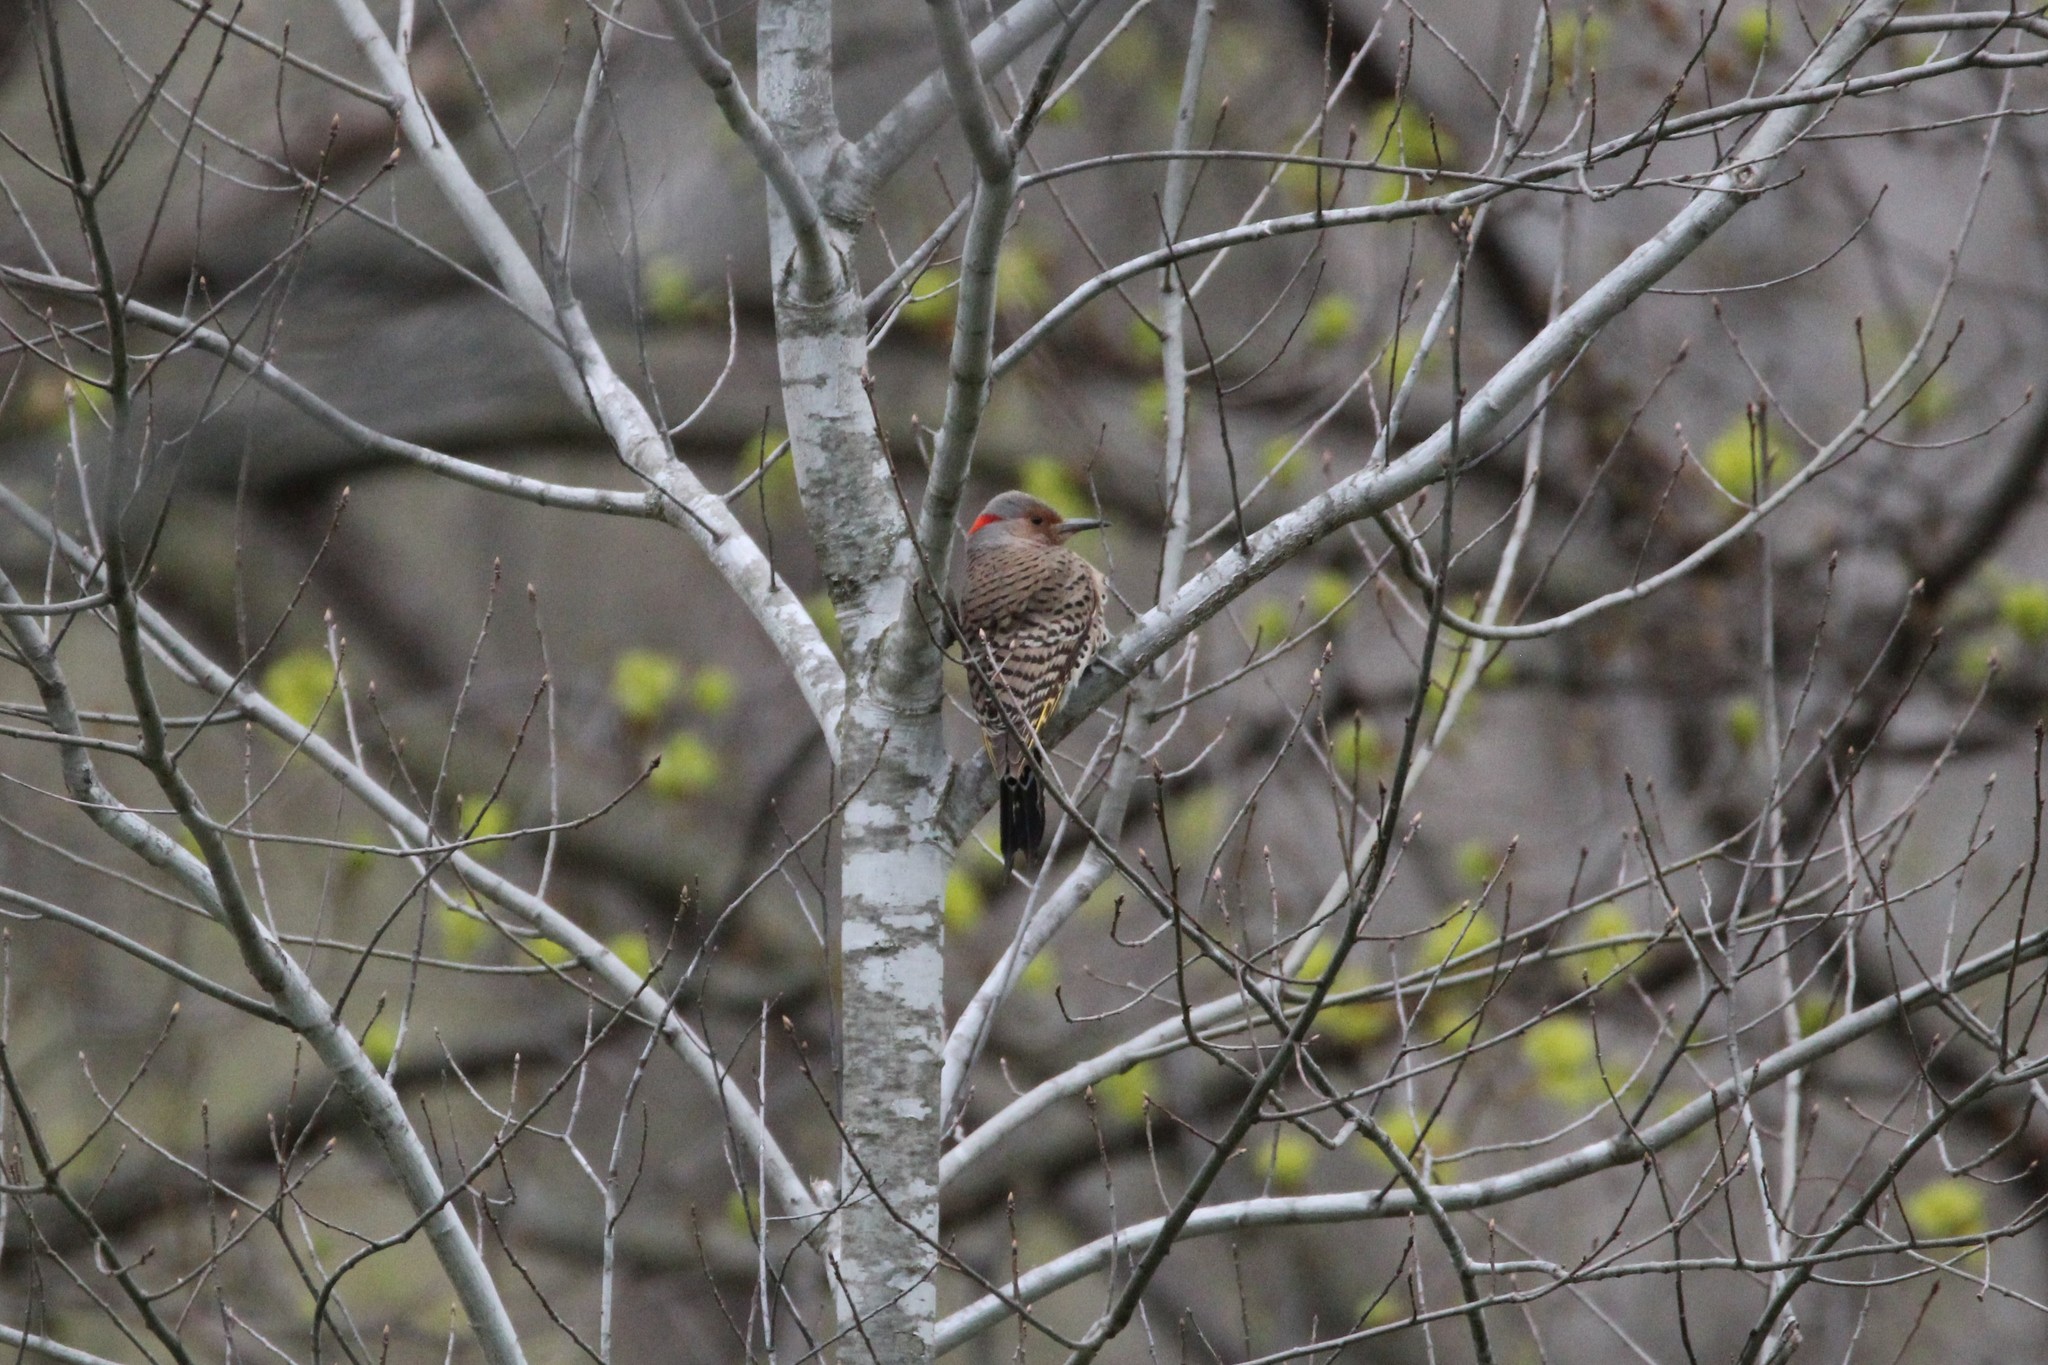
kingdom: Animalia
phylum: Chordata
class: Aves
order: Piciformes
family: Picidae
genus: Colaptes
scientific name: Colaptes auratus
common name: Northern flicker
